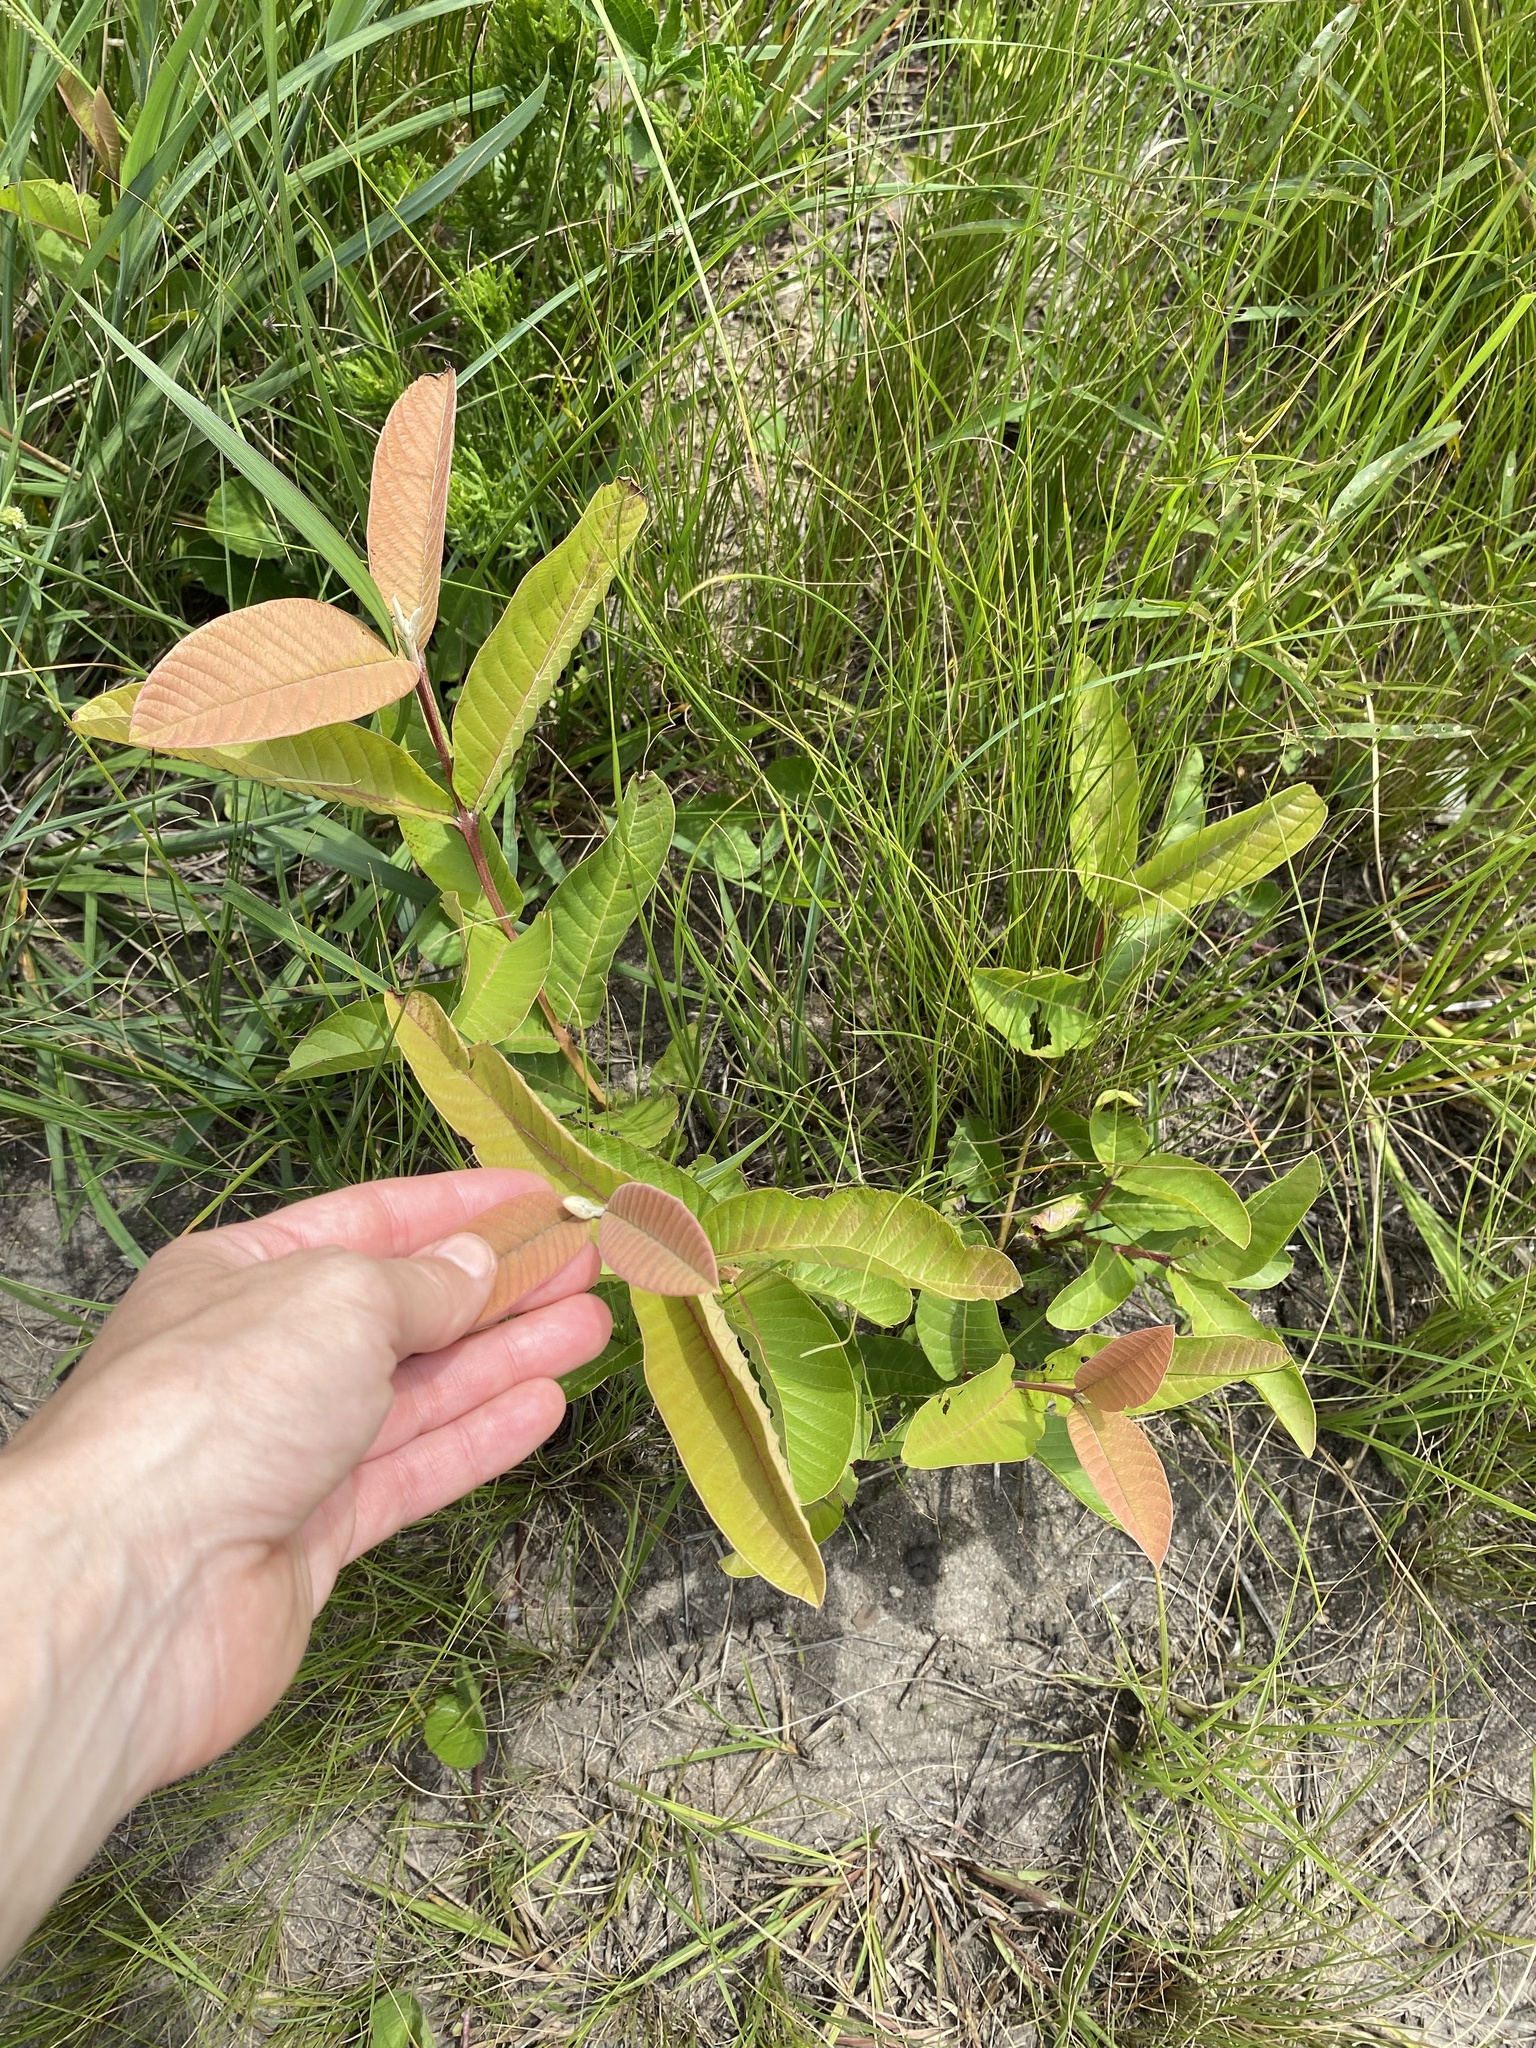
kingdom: Plantae
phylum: Tracheophyta
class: Magnoliopsida
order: Myrtales
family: Myrtaceae
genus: Psidium
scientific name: Psidium guajava
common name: Guava
